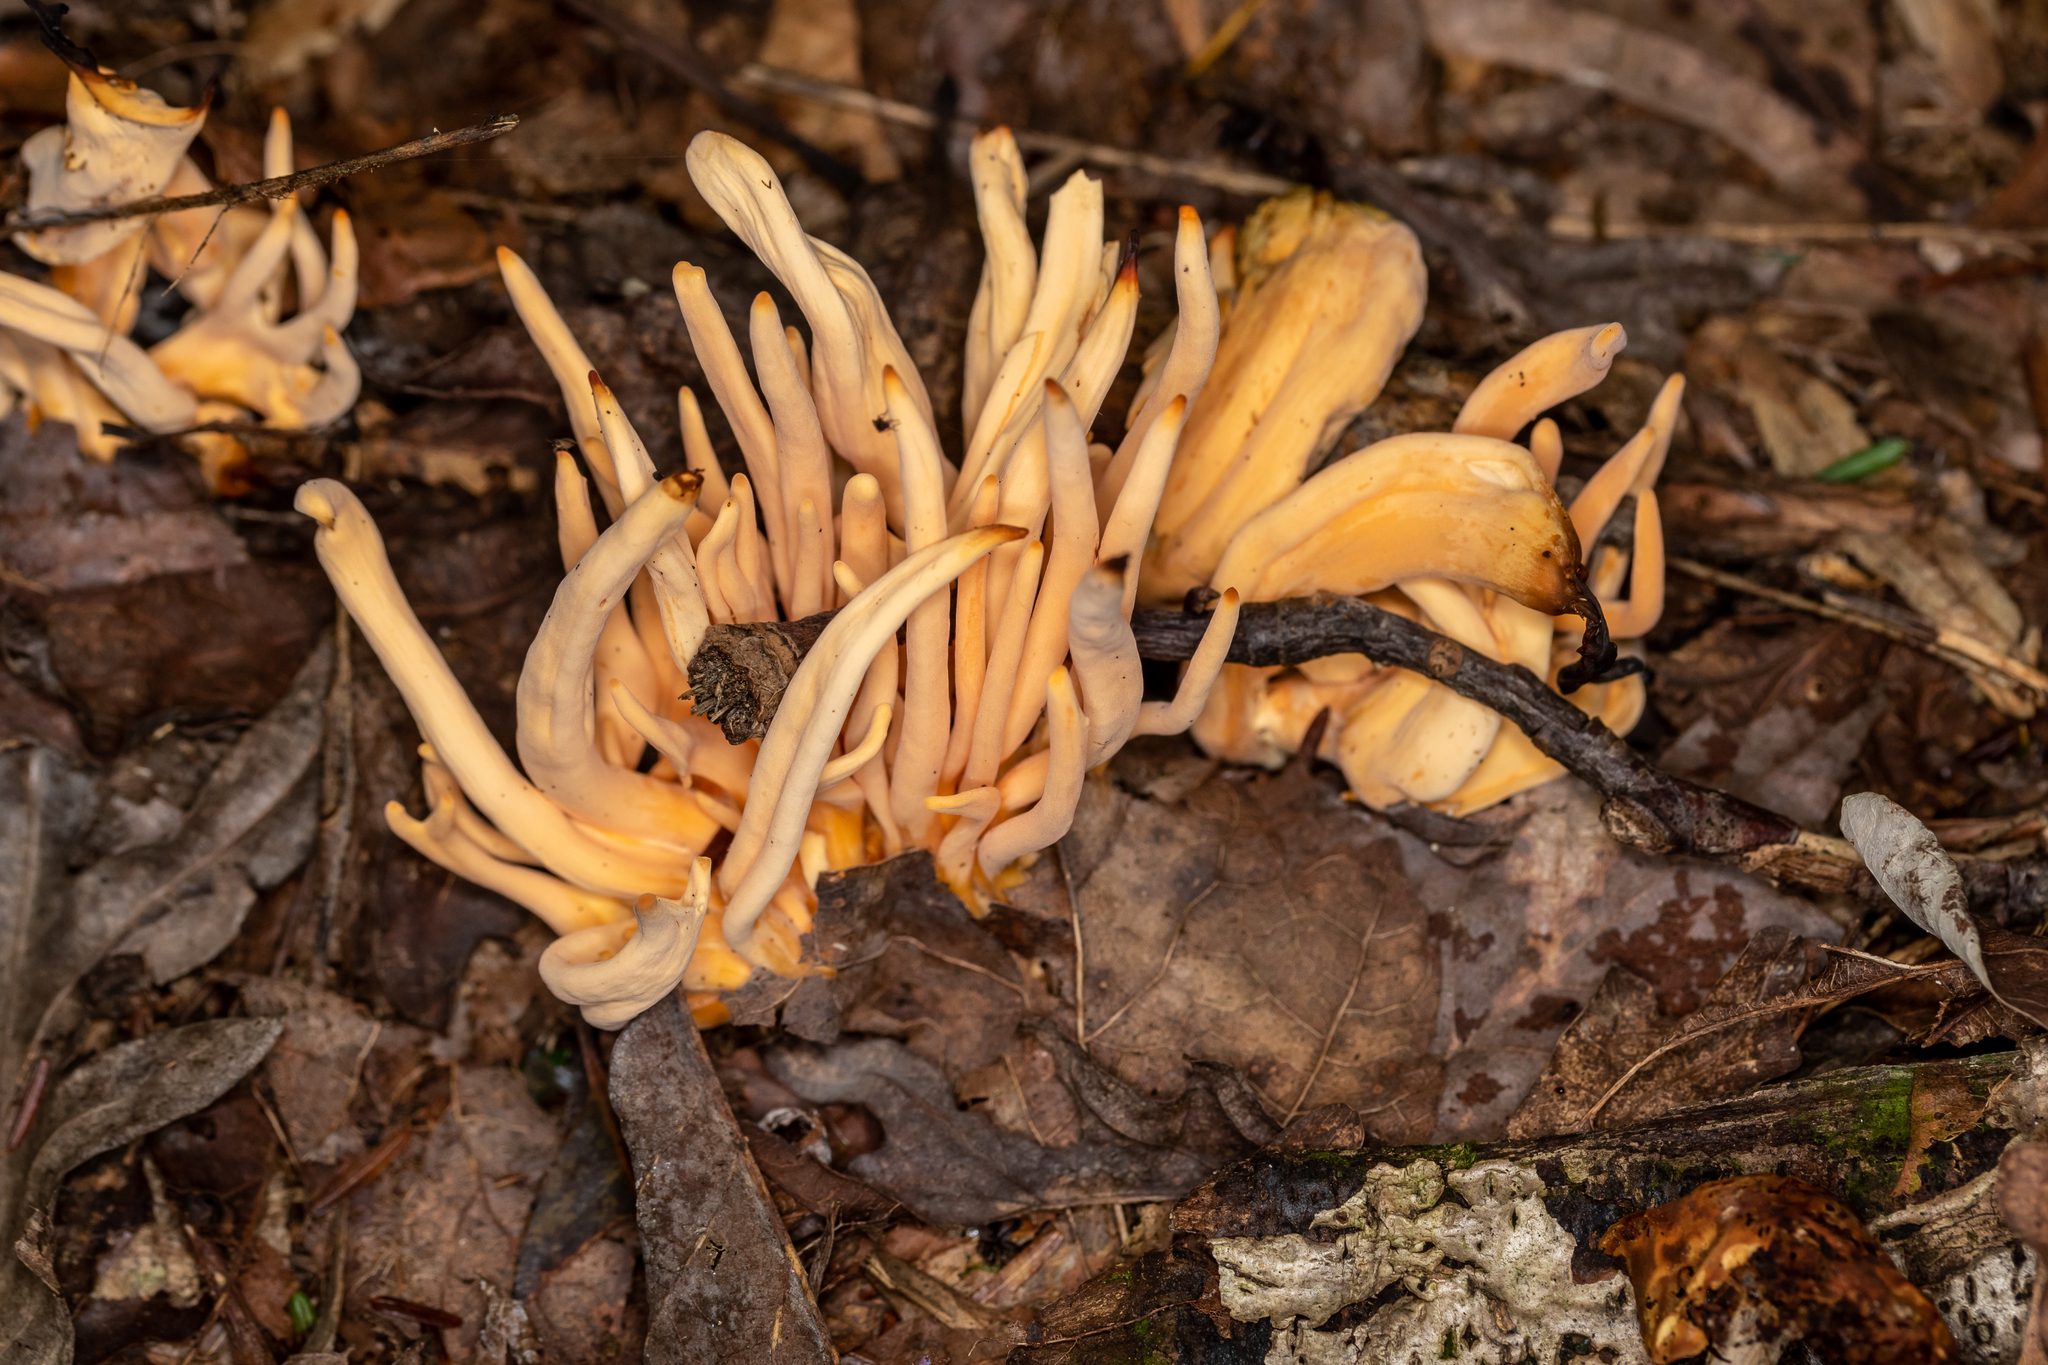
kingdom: Fungi
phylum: Basidiomycota
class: Agaricomycetes
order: Agaricales
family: Clavariaceae
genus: Clavulinopsis
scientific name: Clavulinopsis aurantiocinnabarina
